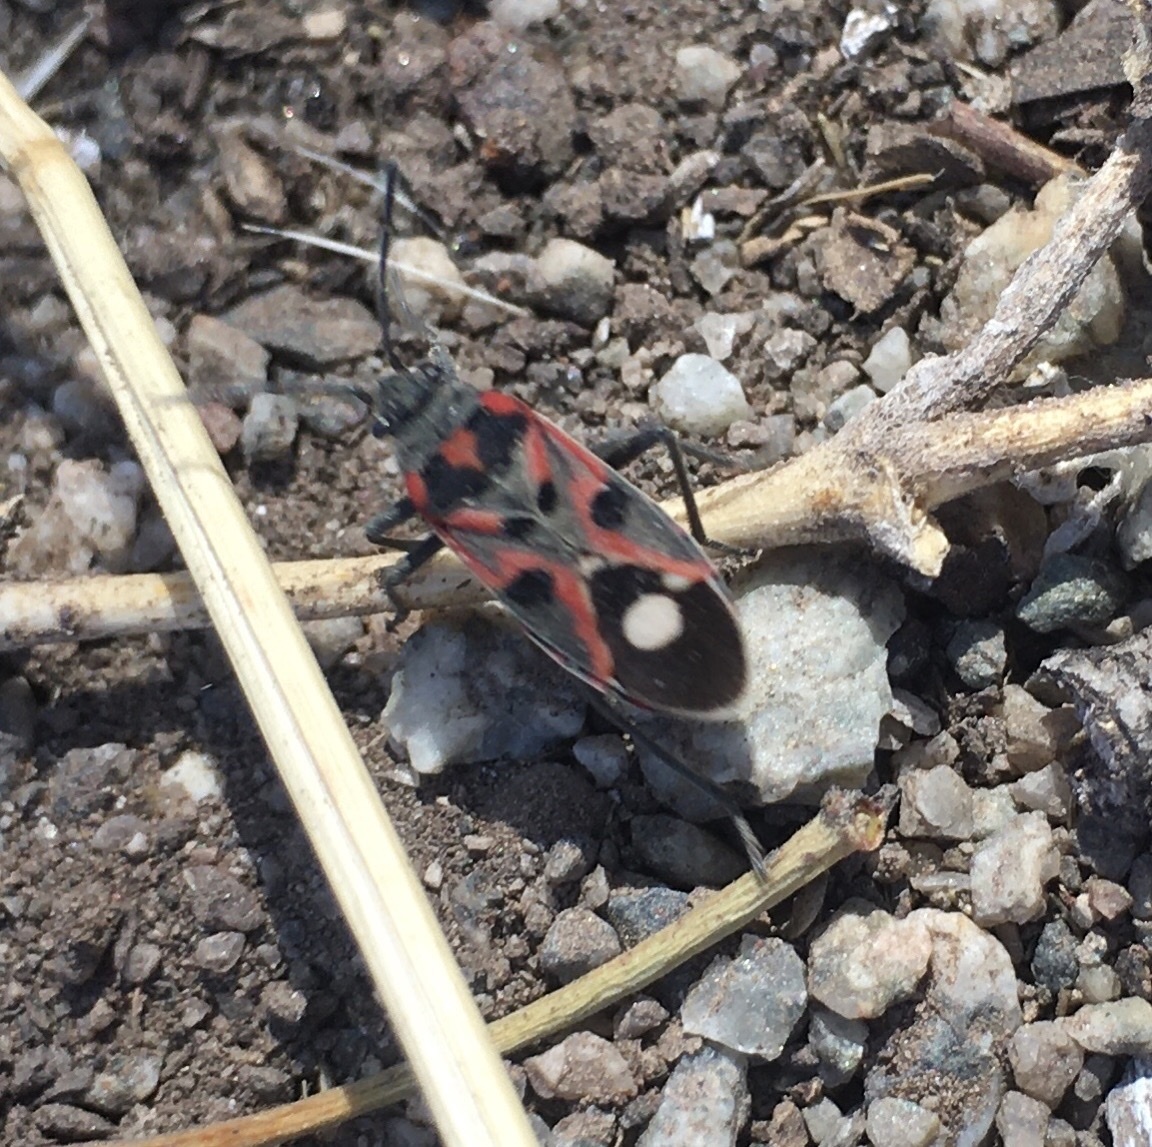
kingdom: Animalia
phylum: Arthropoda
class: Insecta
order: Hemiptera
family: Lygaeidae
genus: Lygaeus
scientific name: Lygaeus alboornatus
